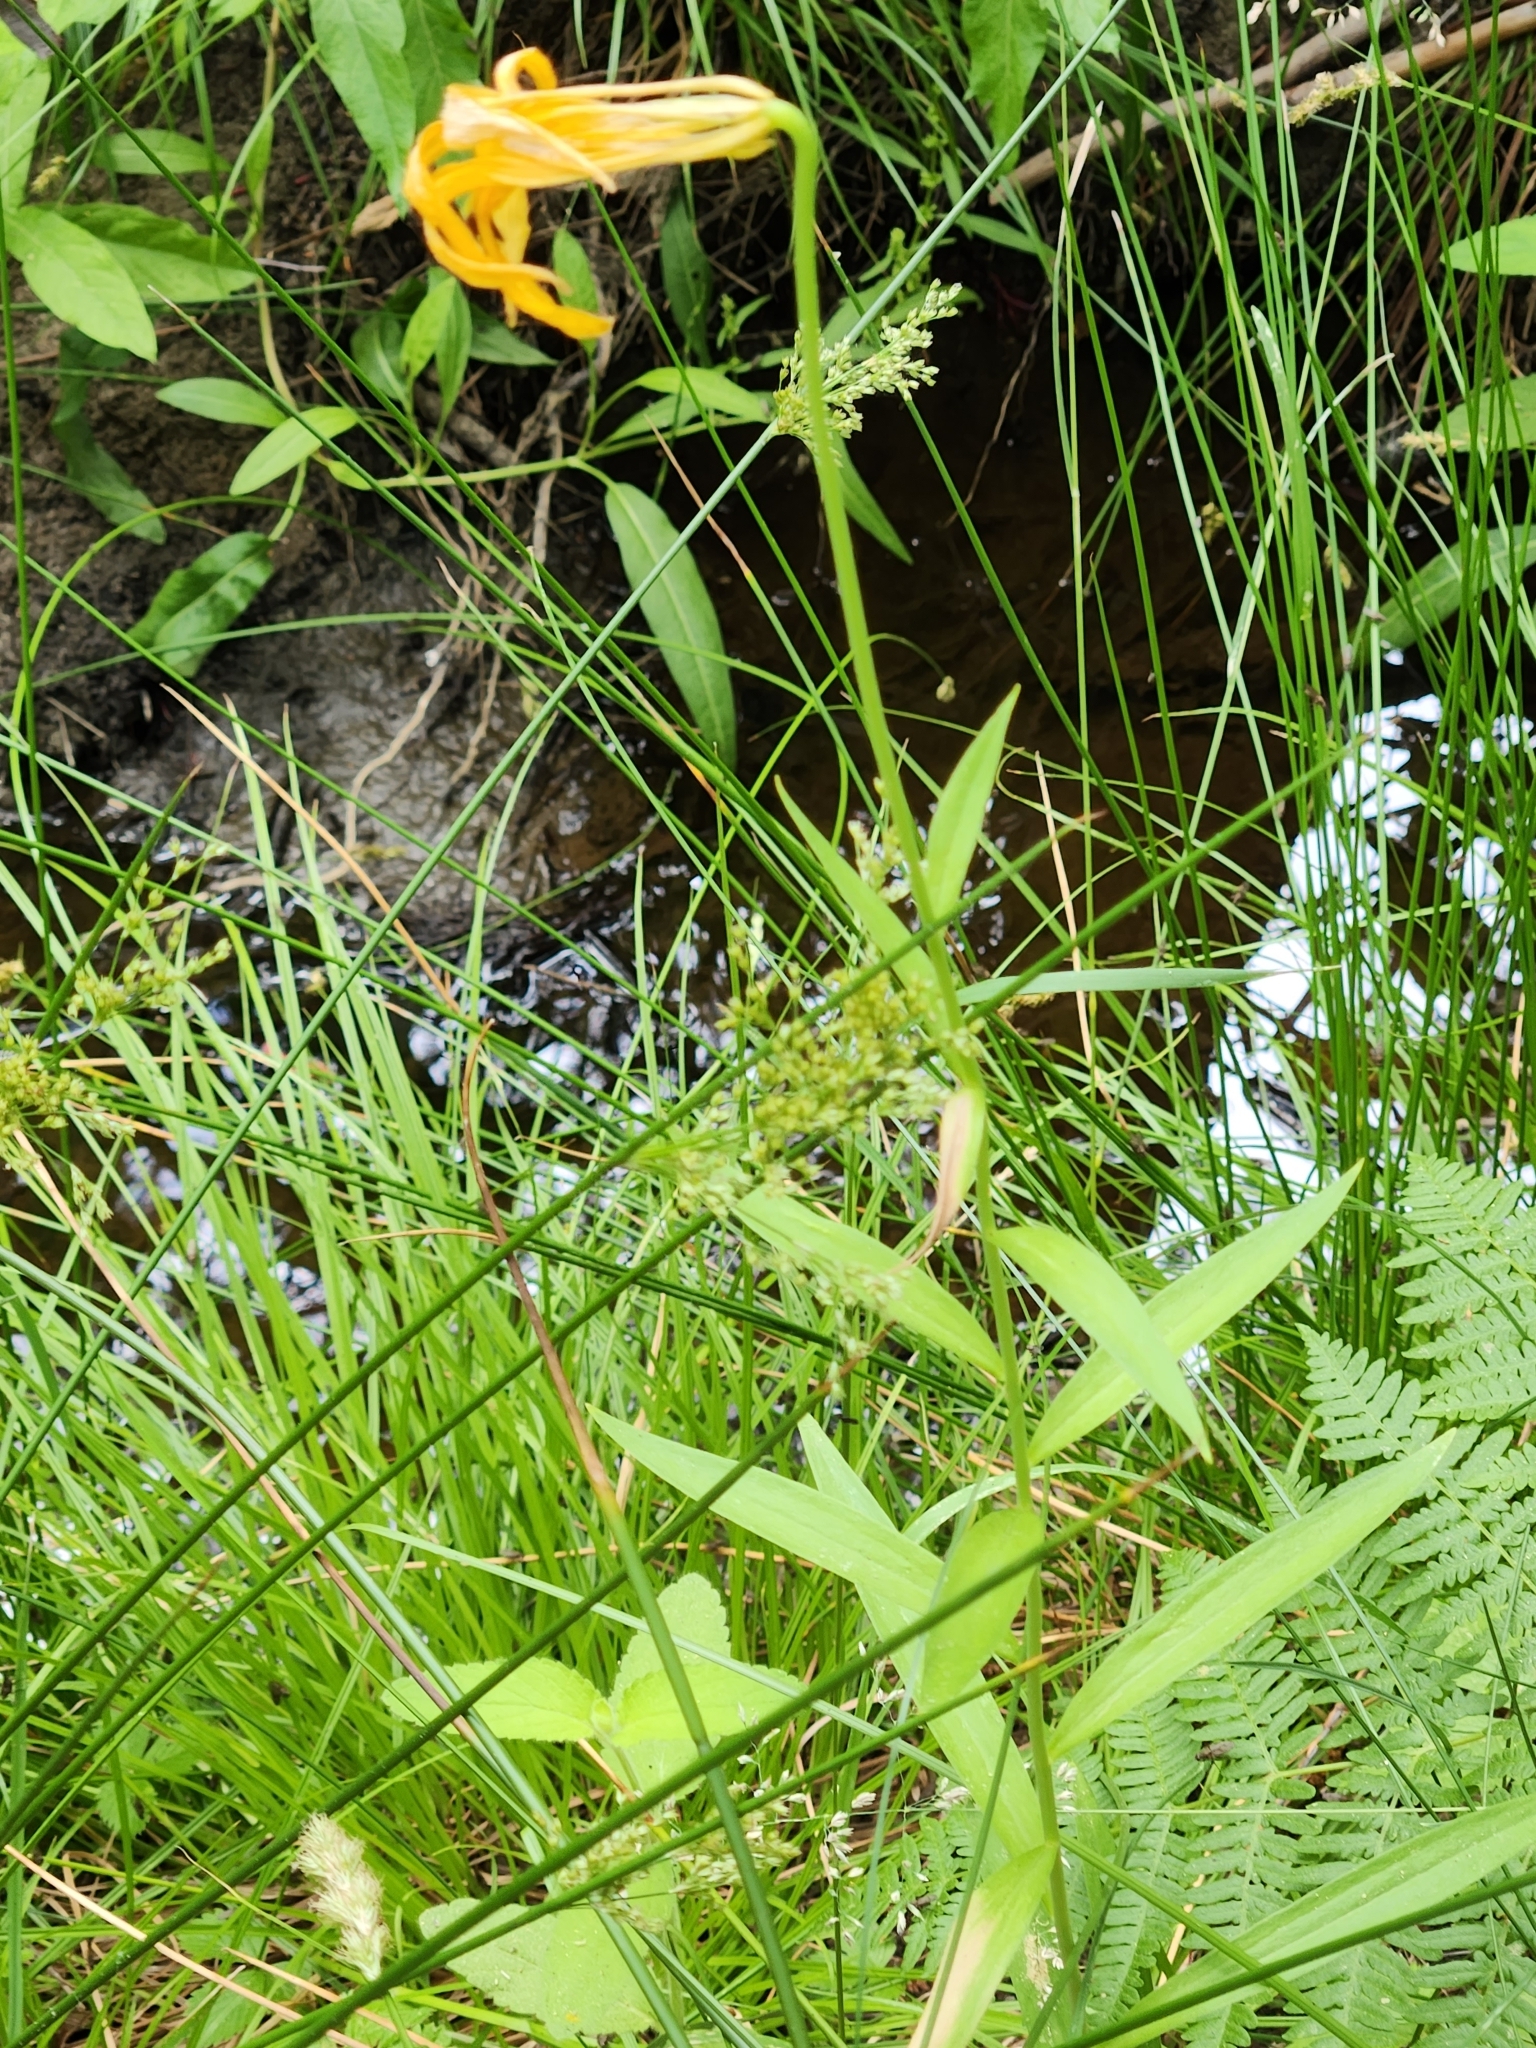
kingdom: Plantae
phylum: Tracheophyta
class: Liliopsida
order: Liliales
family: Liliaceae
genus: Lilium
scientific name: Lilium parryi
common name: Lemon lily
